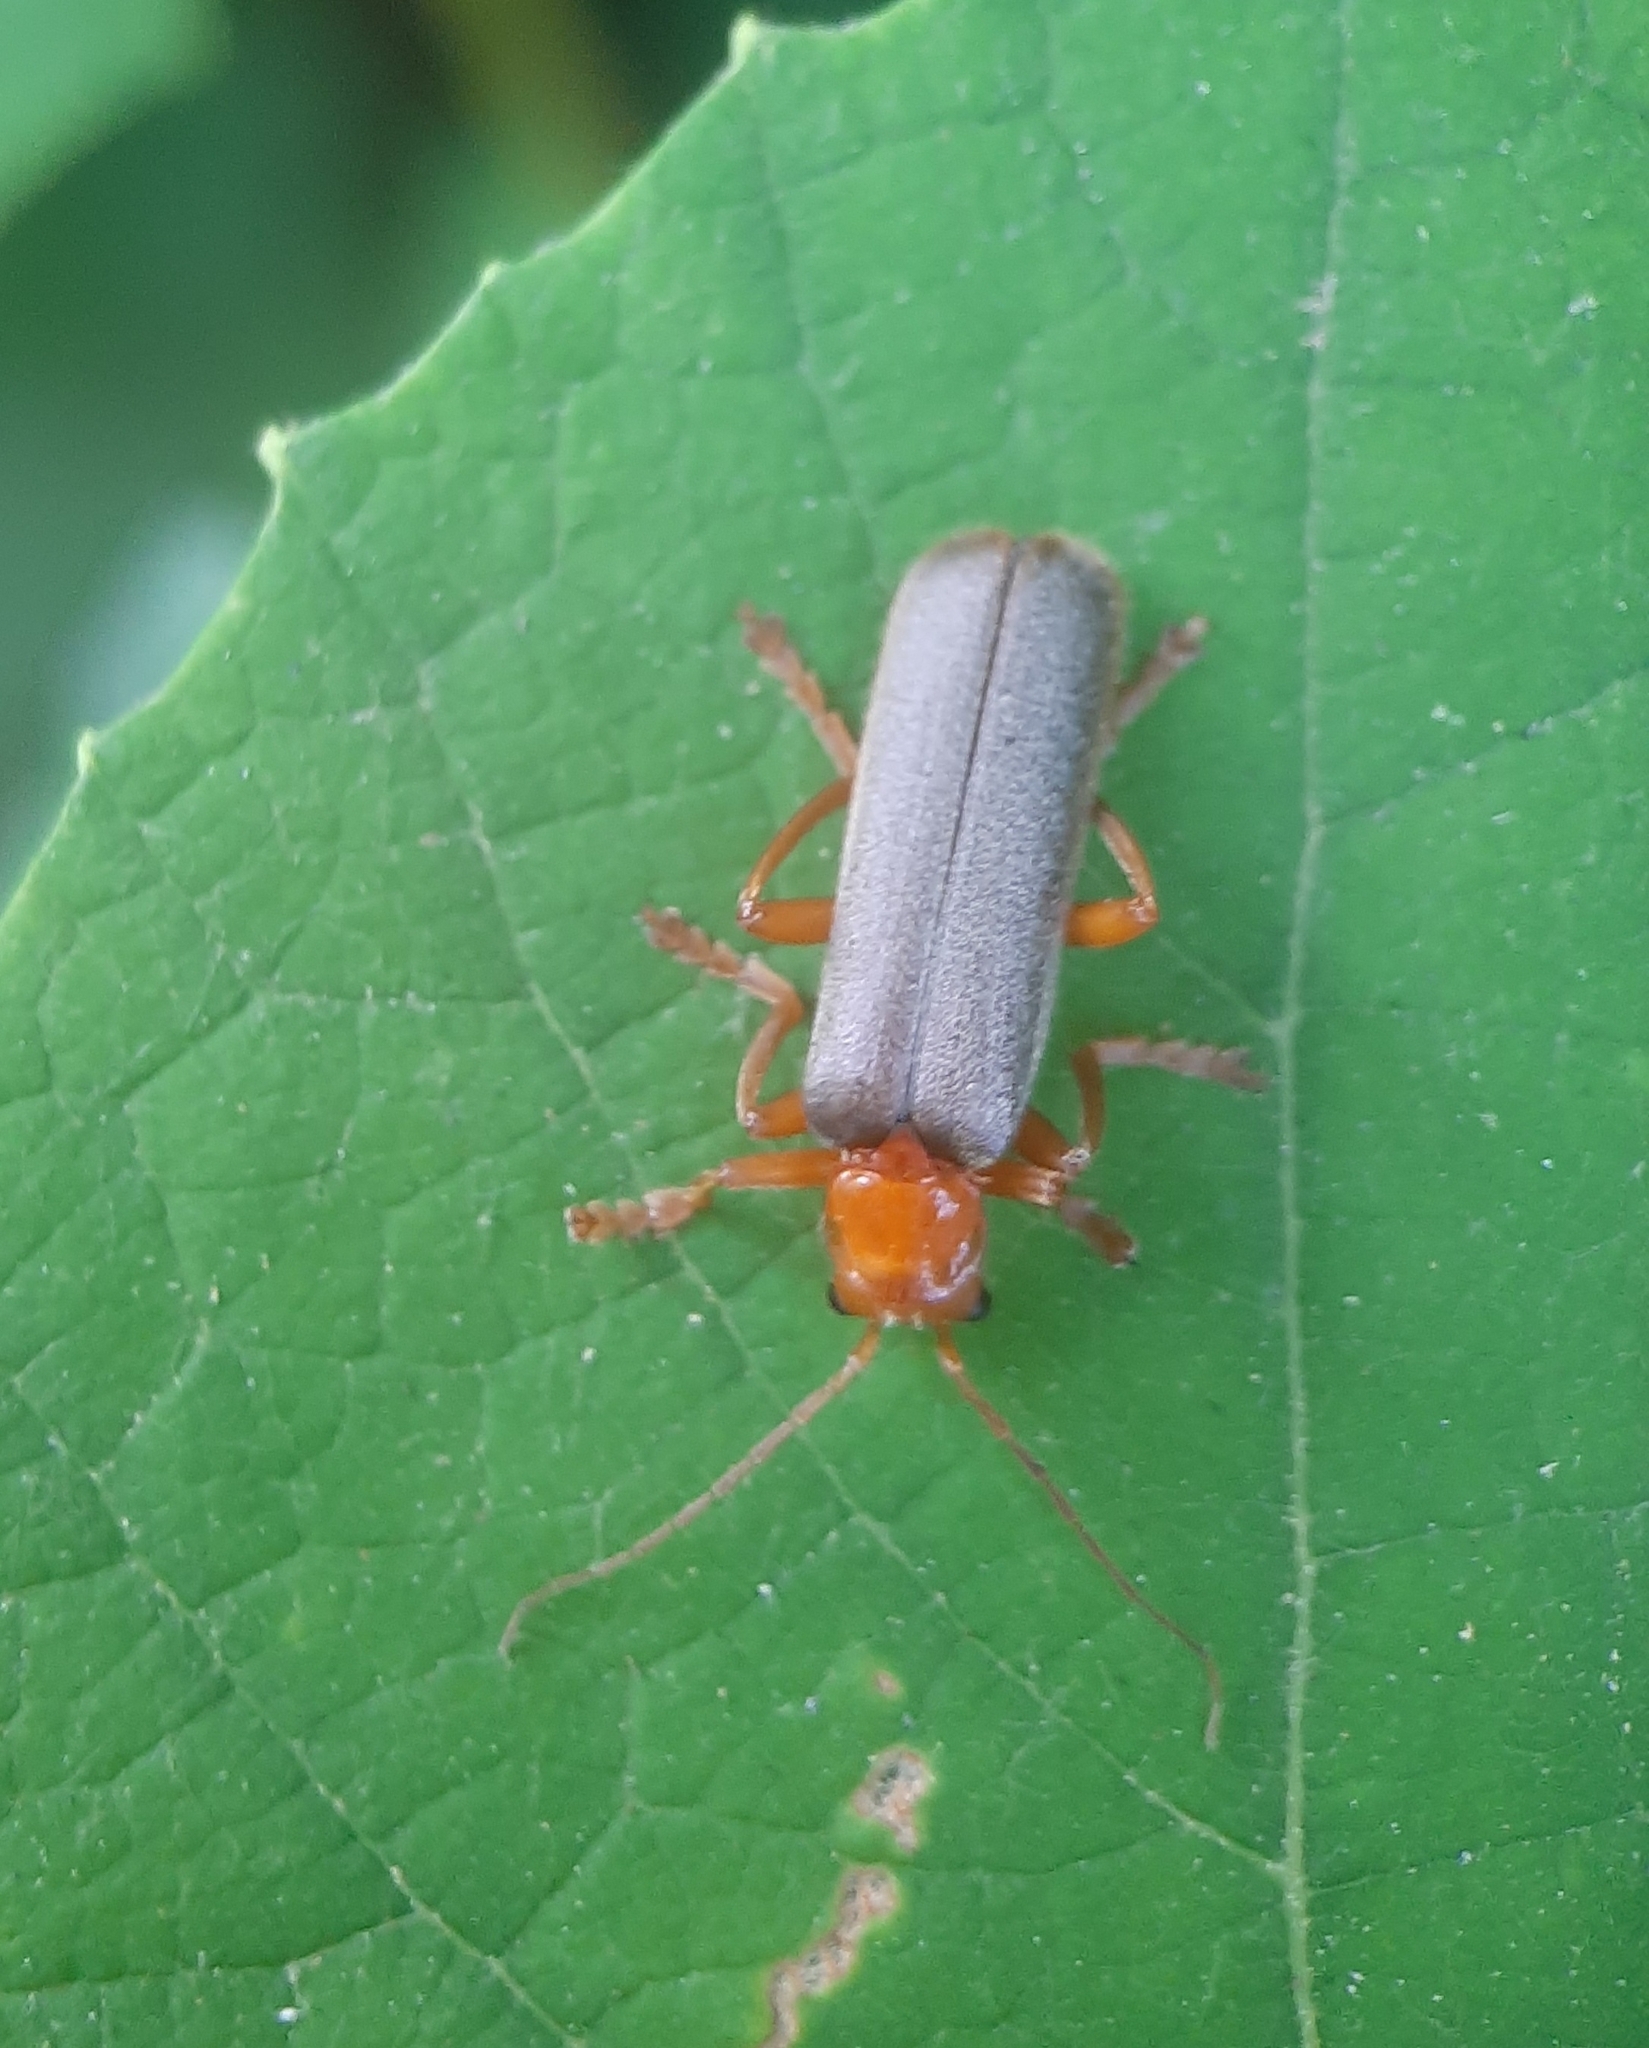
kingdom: Animalia
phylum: Arthropoda
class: Insecta
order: Coleoptera
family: Cantharidae
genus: Pacificanthia
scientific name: Pacificanthia rotundicollis
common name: Brown leatherwing beetle
